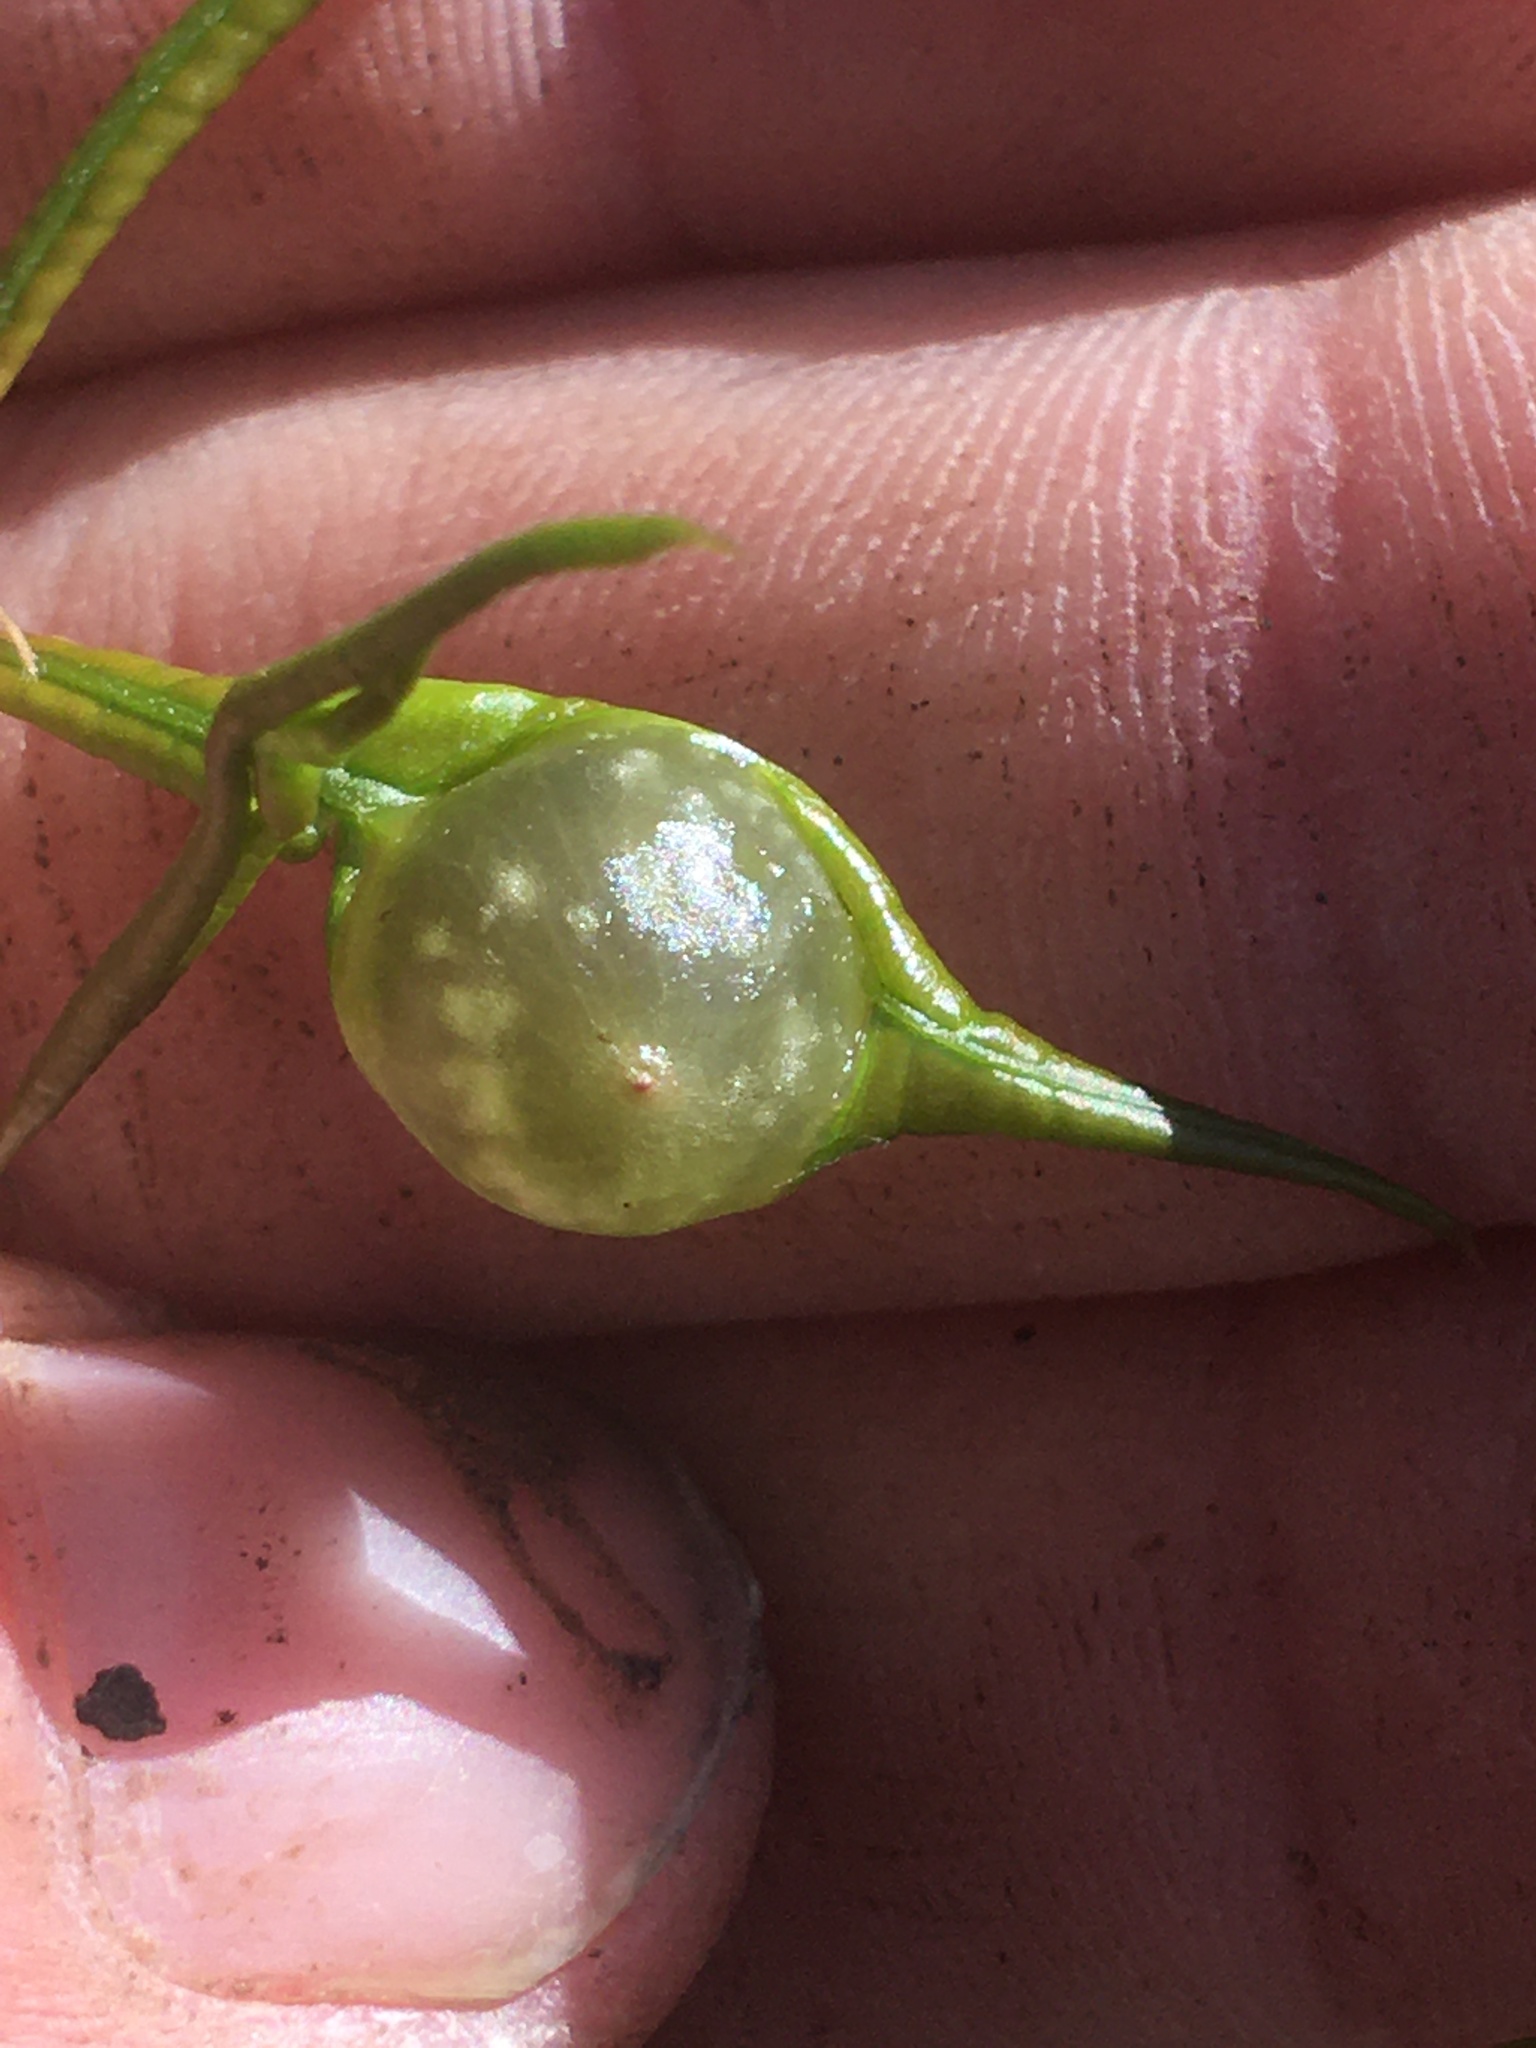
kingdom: Animalia
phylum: Arthropoda
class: Insecta
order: Hymenoptera
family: Cynipidae
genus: Dryocosmus
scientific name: Dryocosmus quercuspalustris
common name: Succulent oak gall wasp
